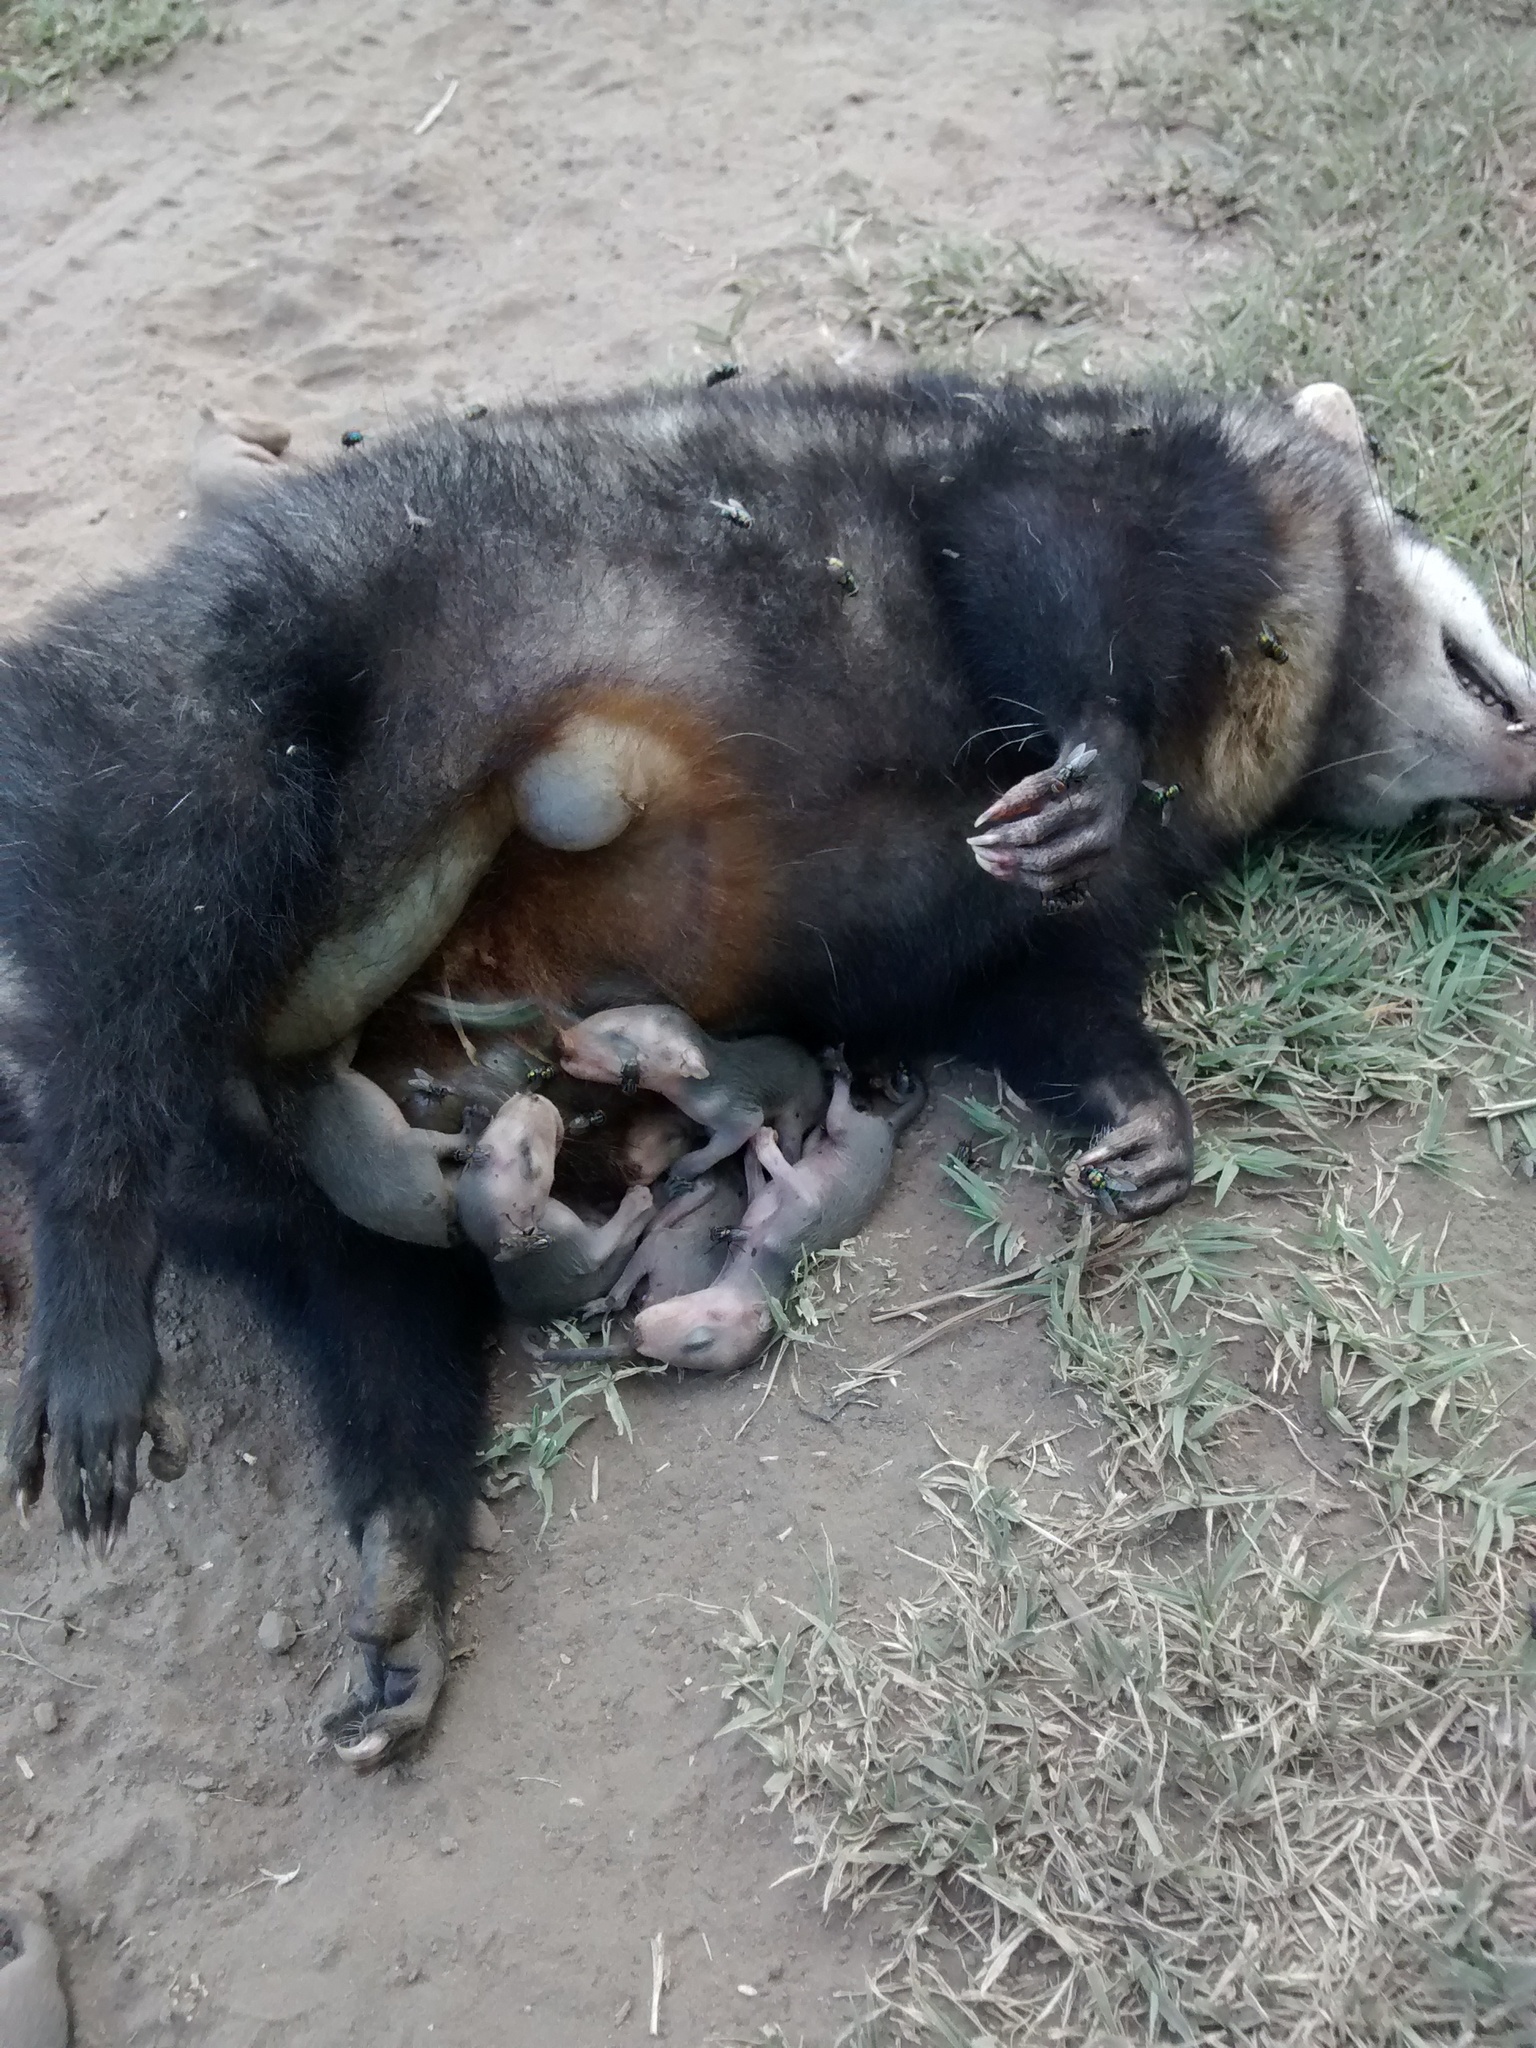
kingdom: Animalia
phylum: Chordata
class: Mammalia
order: Didelphimorphia
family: Didelphidae
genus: Didelphis
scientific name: Didelphis albiventris
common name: White-eared opossum
